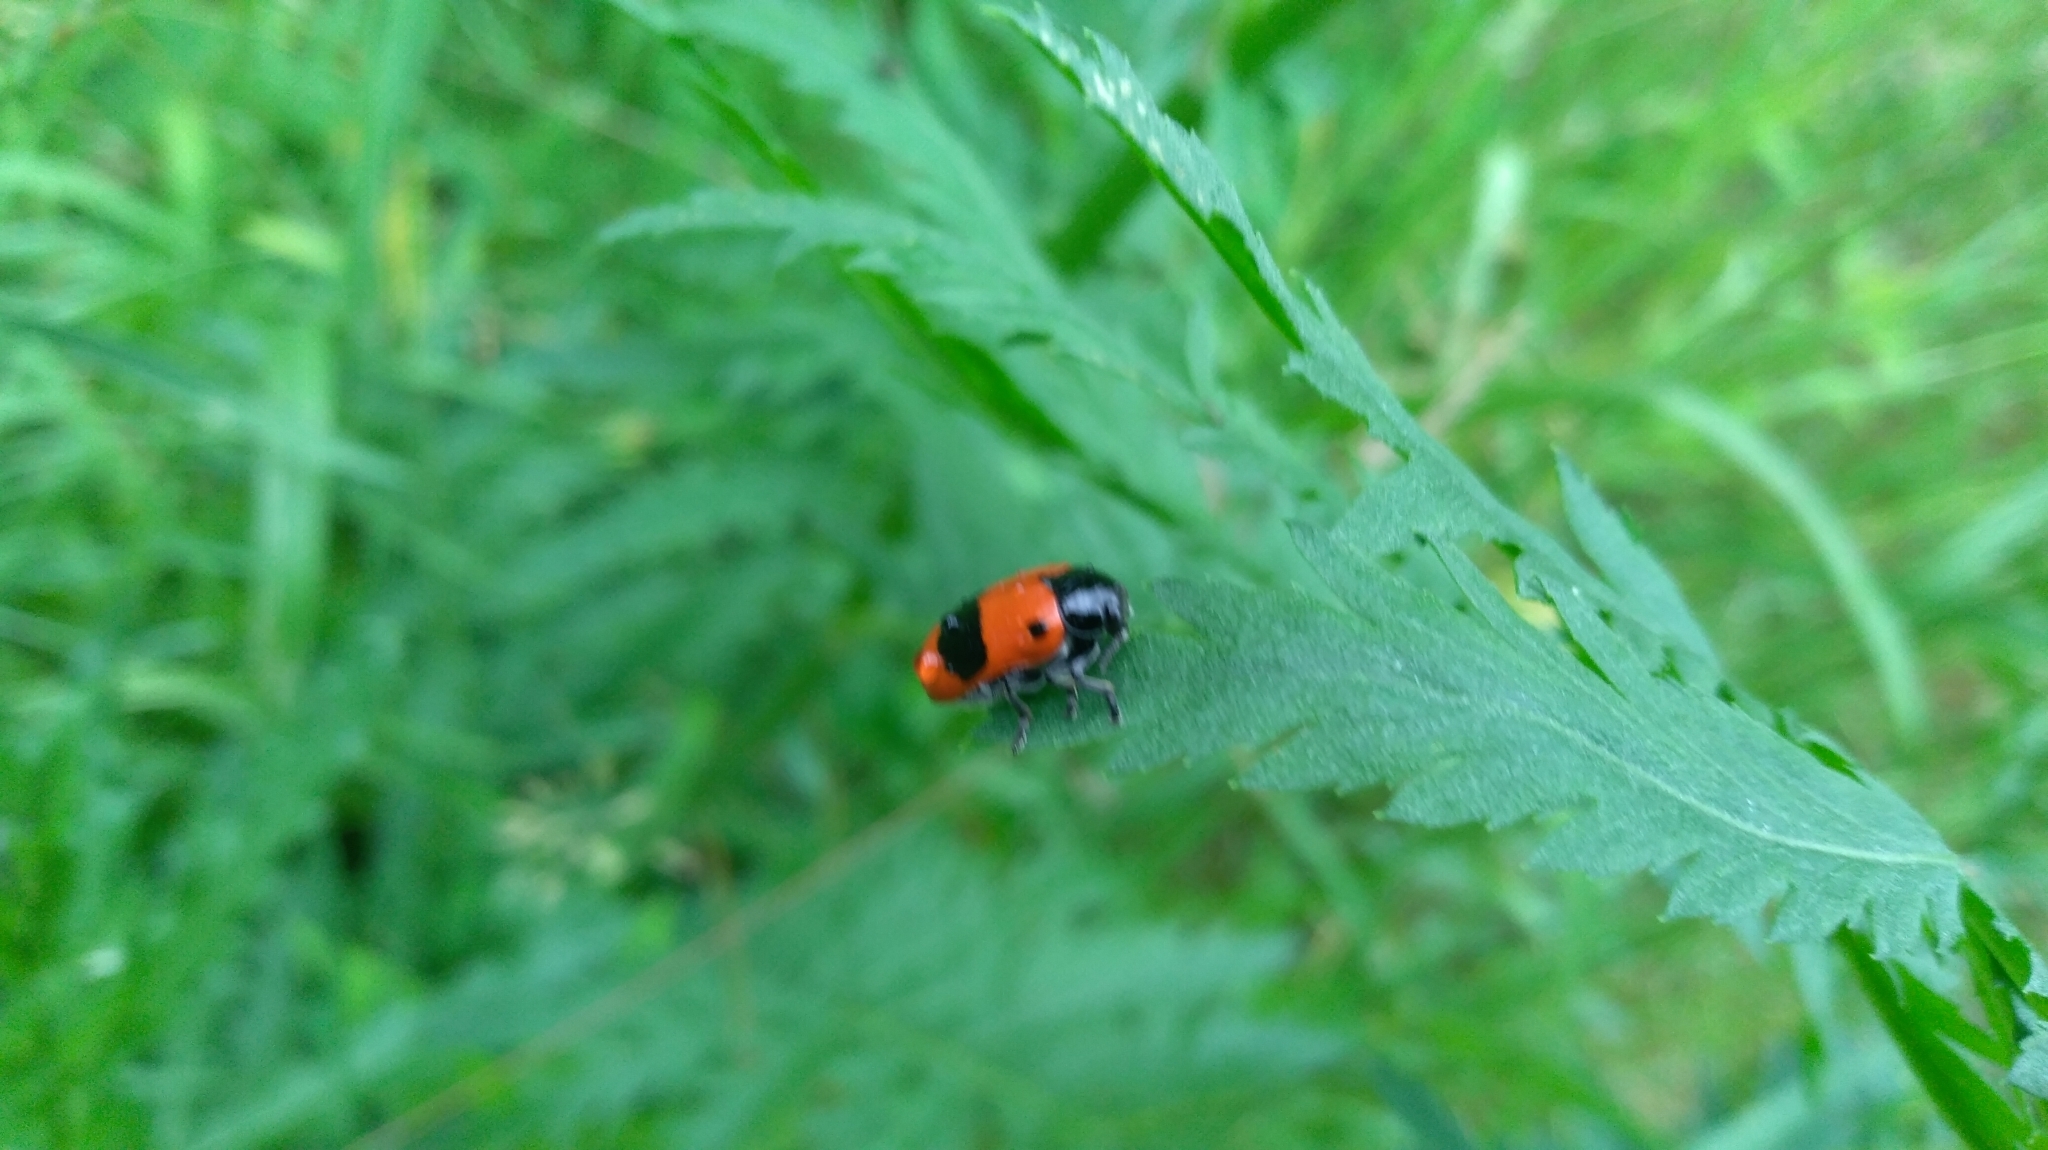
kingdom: Animalia
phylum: Arthropoda
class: Insecta
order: Coleoptera
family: Chrysomelidae
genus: Clytra
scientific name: Clytra laeviuscula
